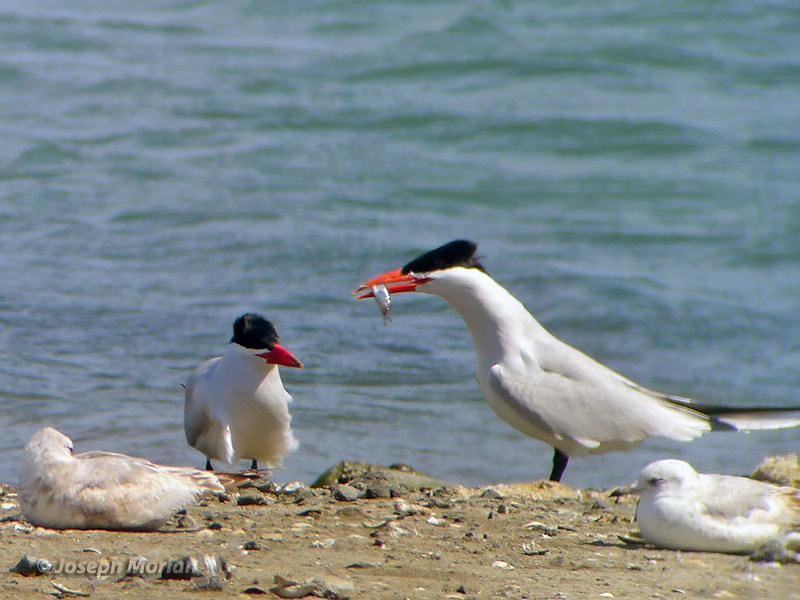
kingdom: Animalia
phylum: Chordata
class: Aves
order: Charadriiformes
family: Laridae
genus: Hydroprogne
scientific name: Hydroprogne caspia
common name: Caspian tern
